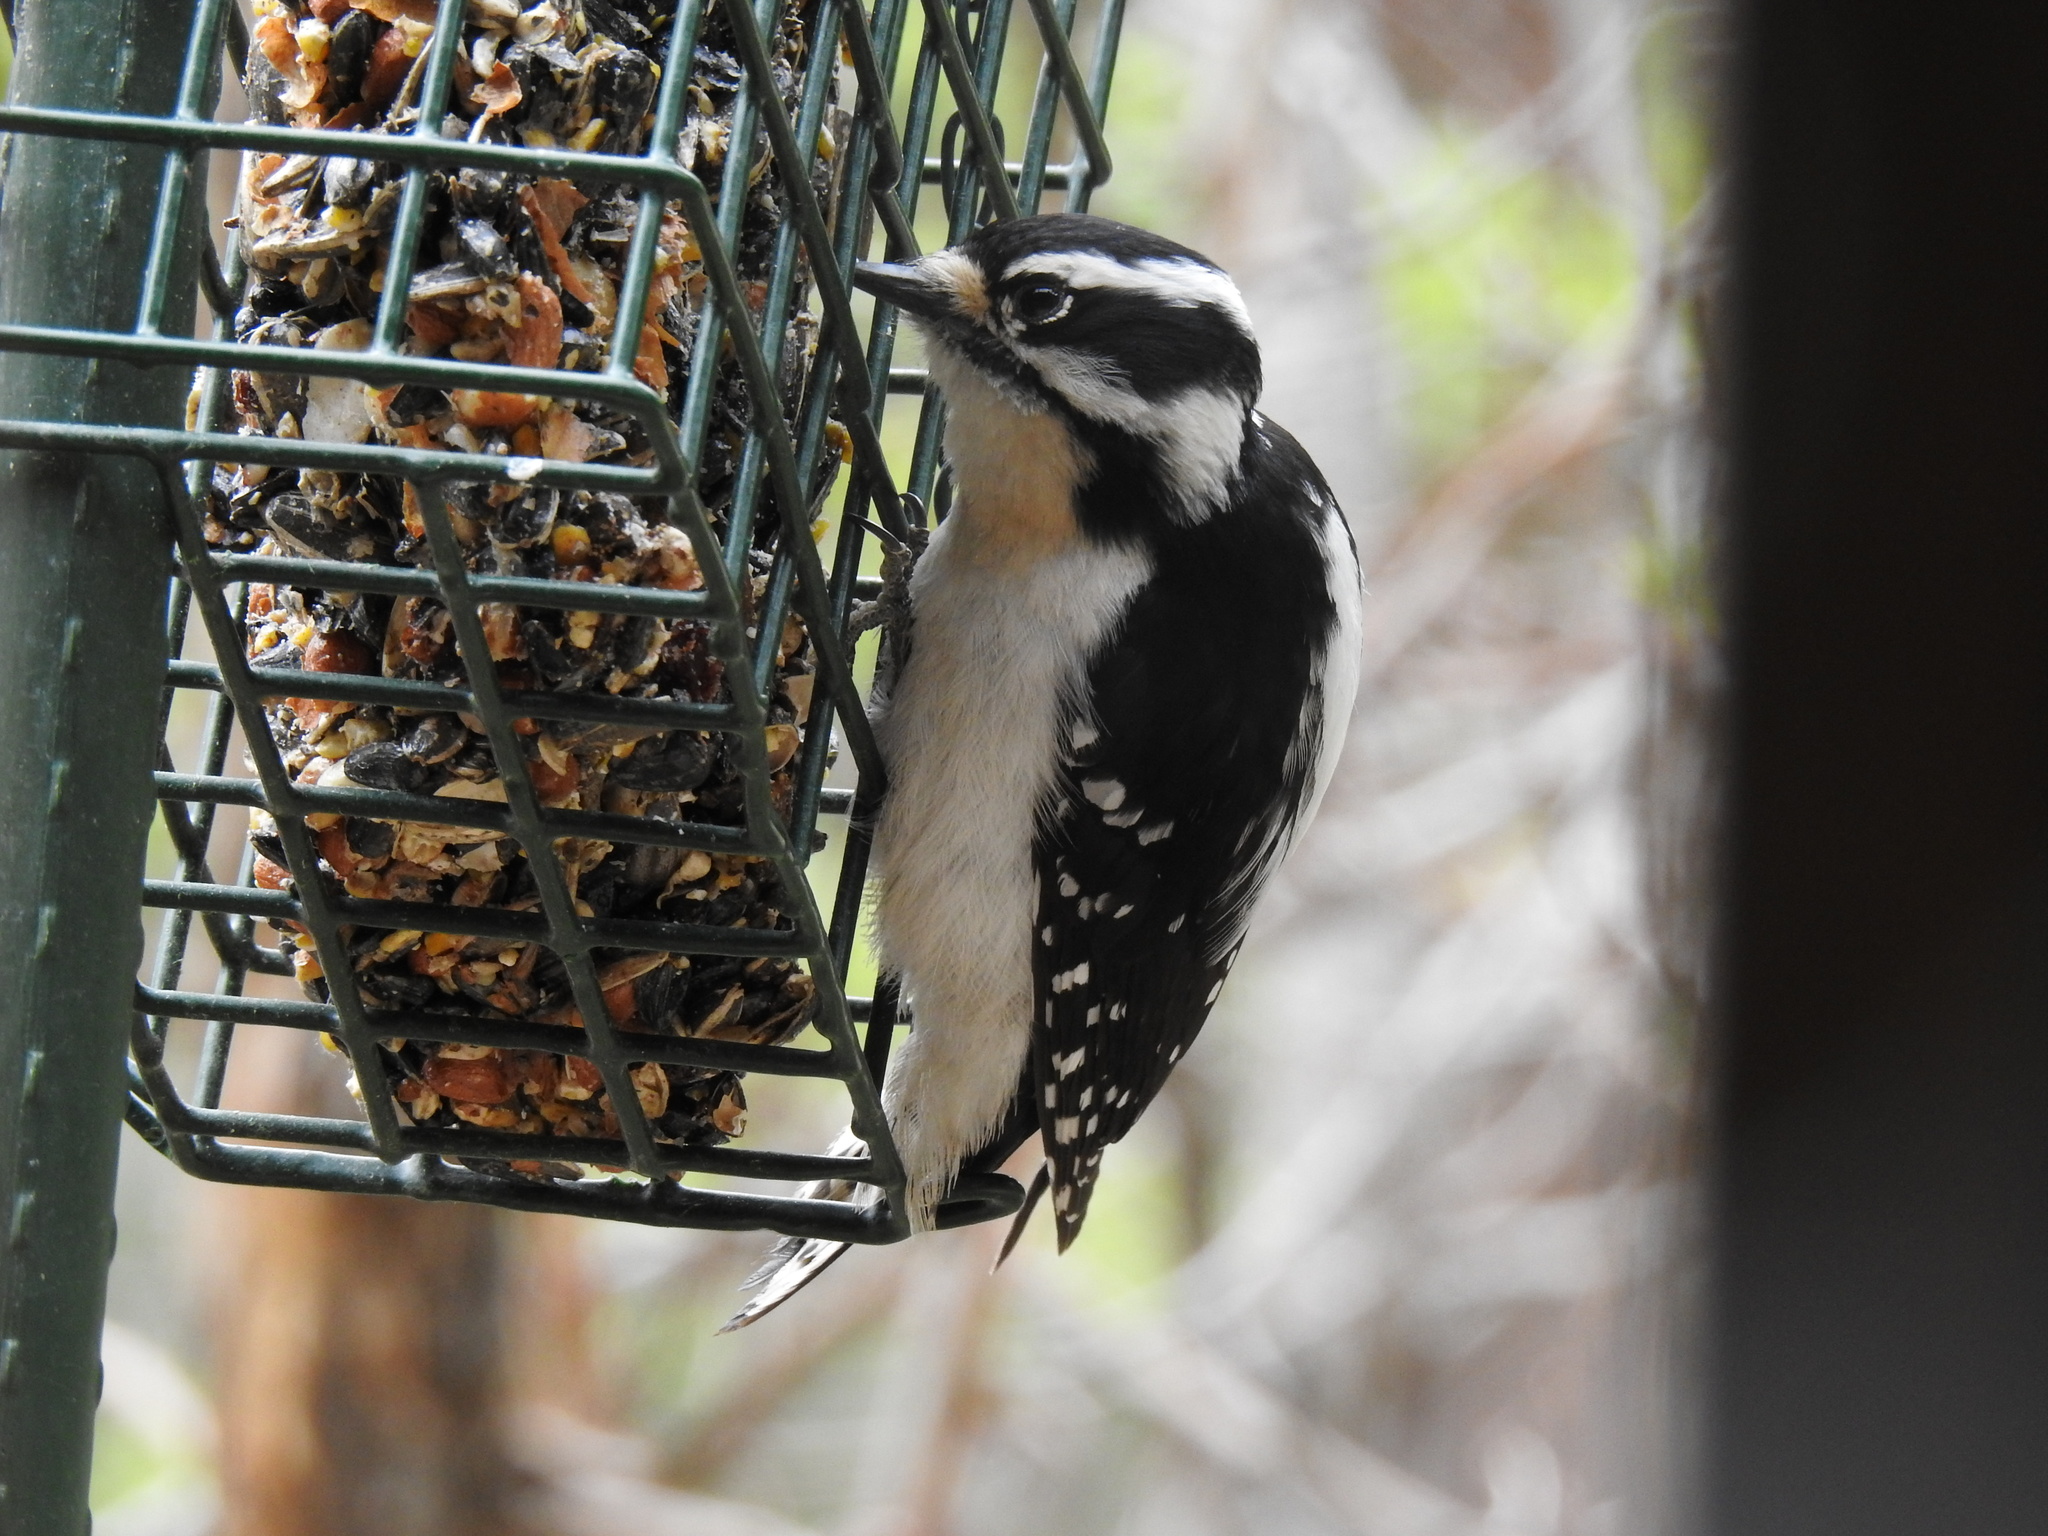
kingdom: Animalia
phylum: Chordata
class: Aves
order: Piciformes
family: Picidae
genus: Dryobates
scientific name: Dryobates pubescens
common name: Downy woodpecker
